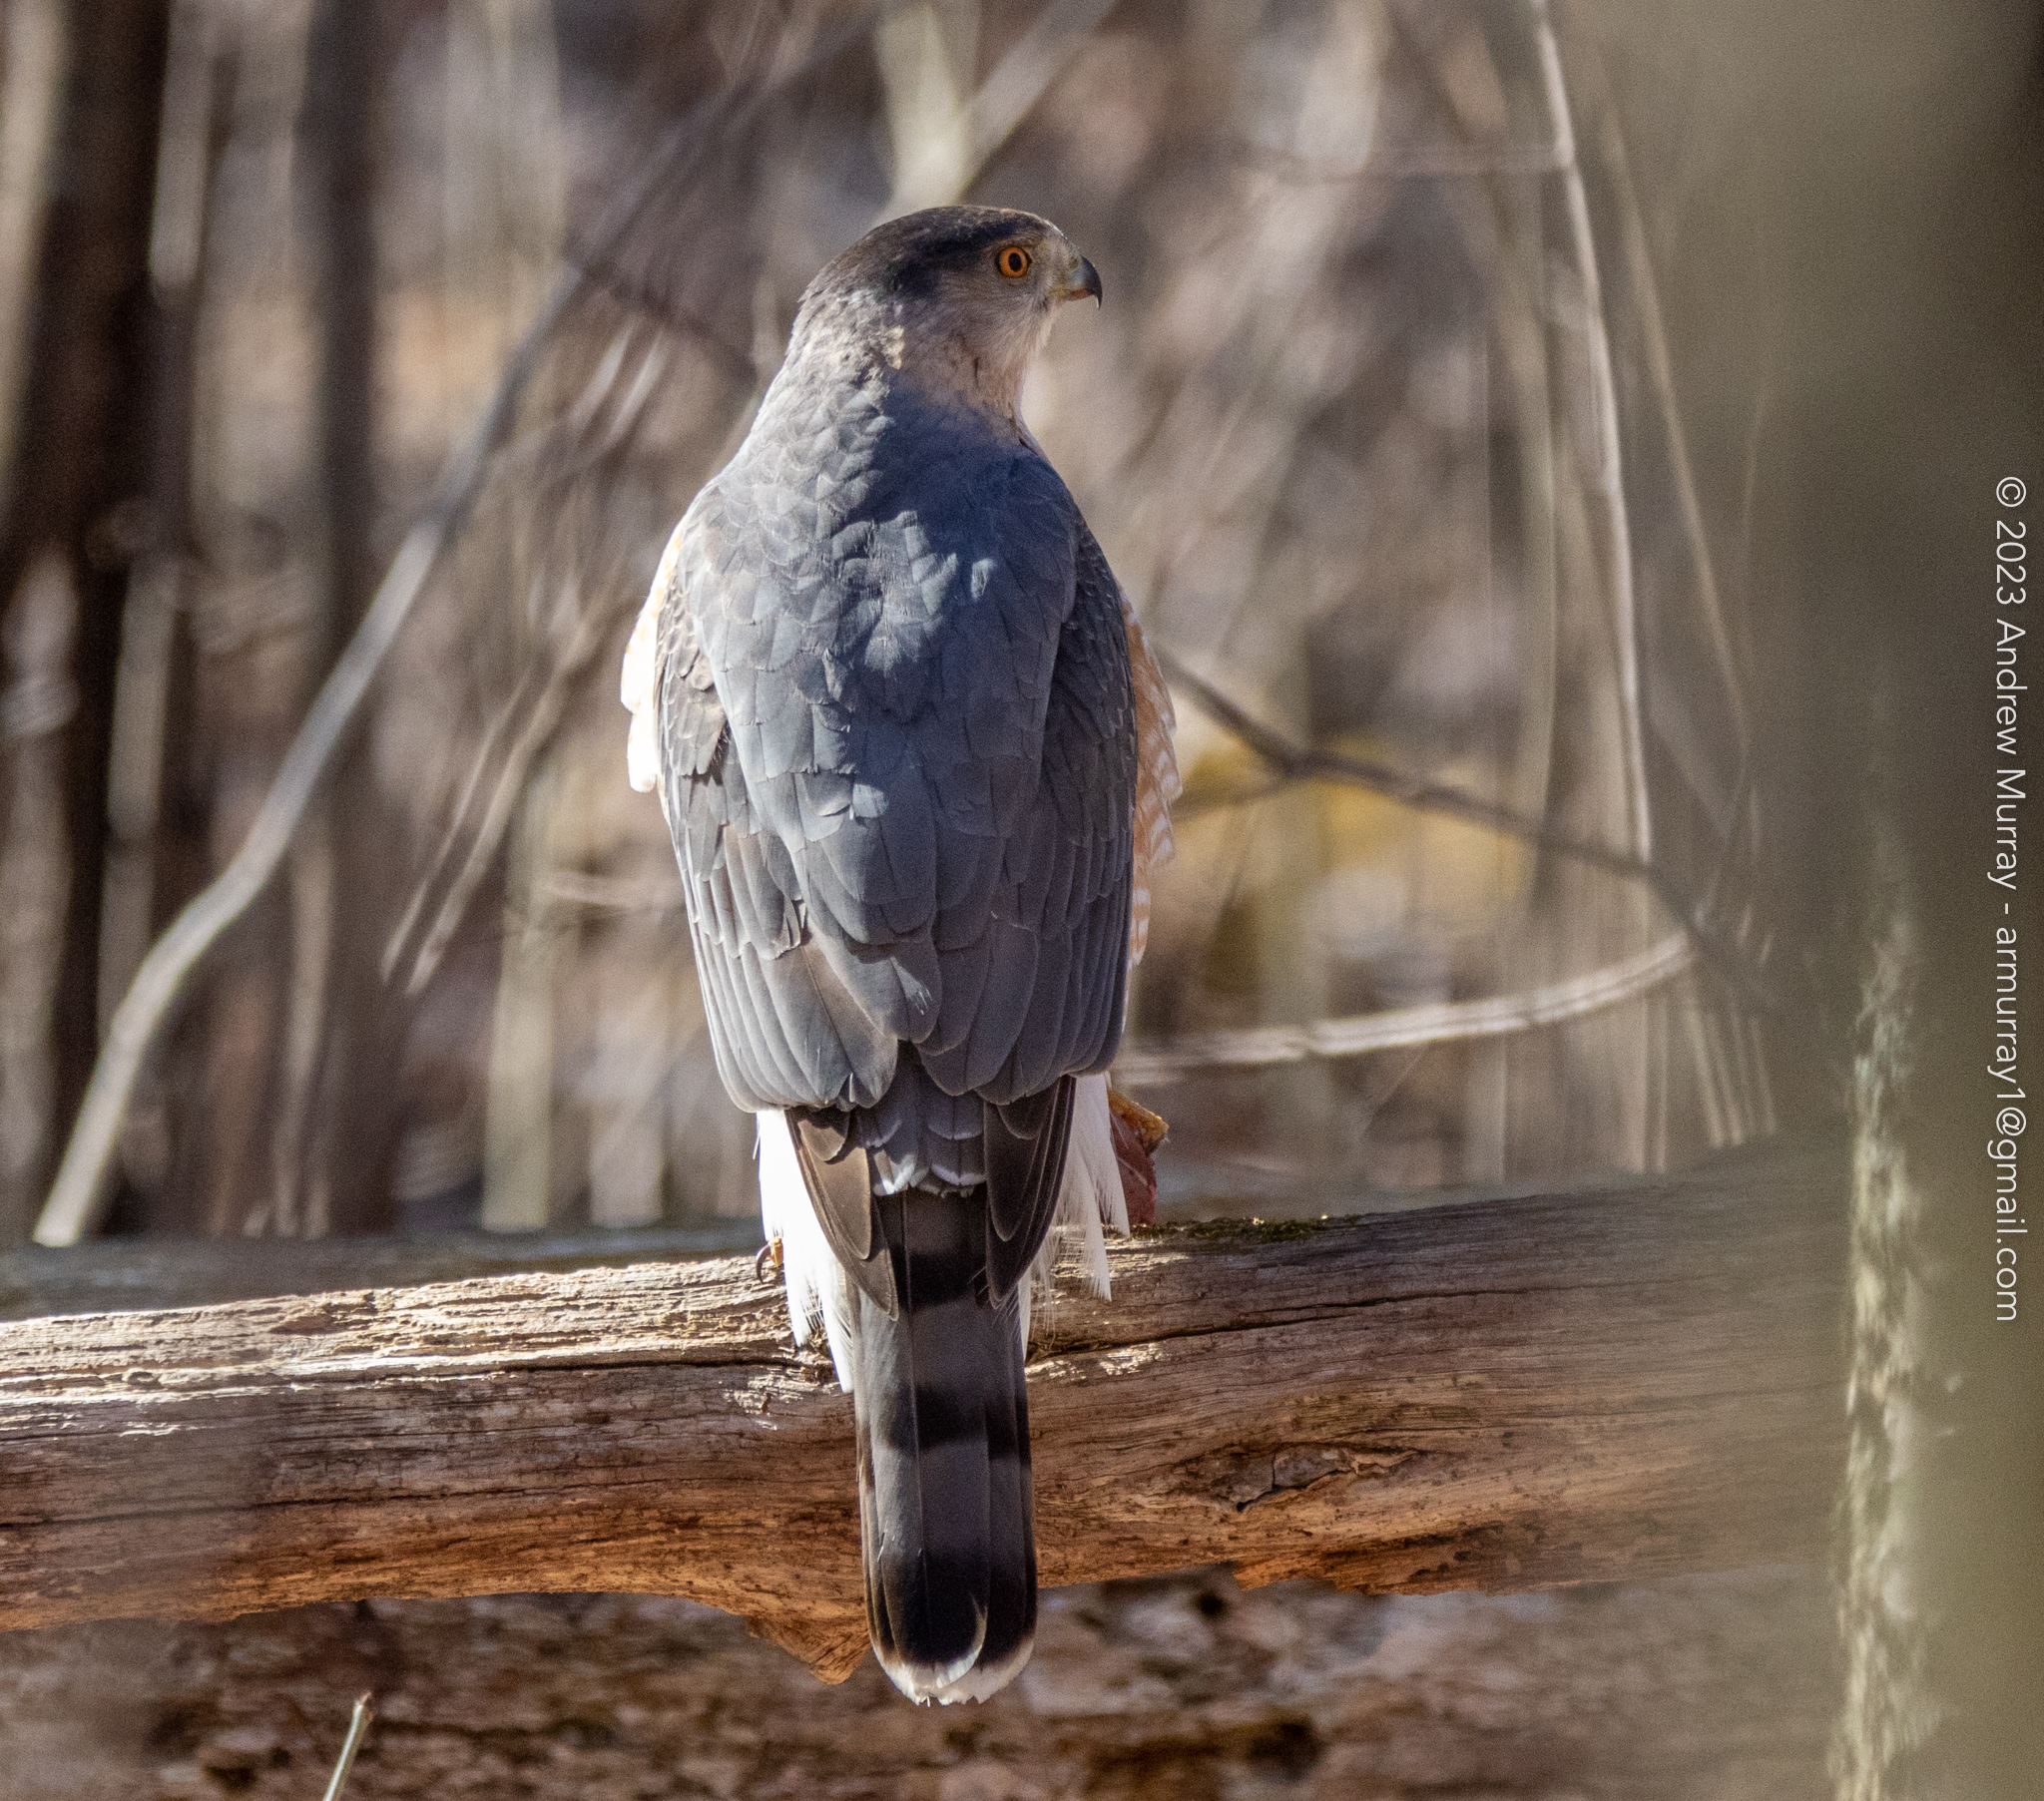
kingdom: Animalia
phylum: Chordata
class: Aves
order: Accipitriformes
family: Accipitridae
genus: Accipiter
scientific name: Accipiter cooperii
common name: Cooper's hawk
